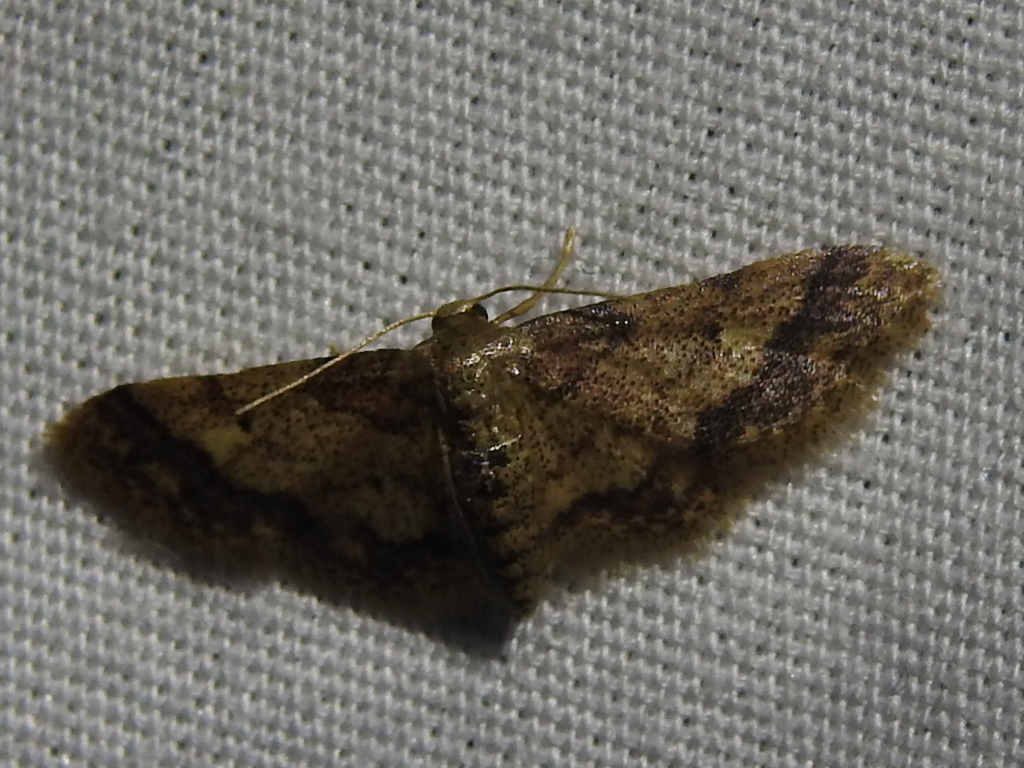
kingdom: Animalia
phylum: Arthropoda
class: Insecta
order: Lepidoptera
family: Geometridae
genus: Idaea
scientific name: Idaea celtima
